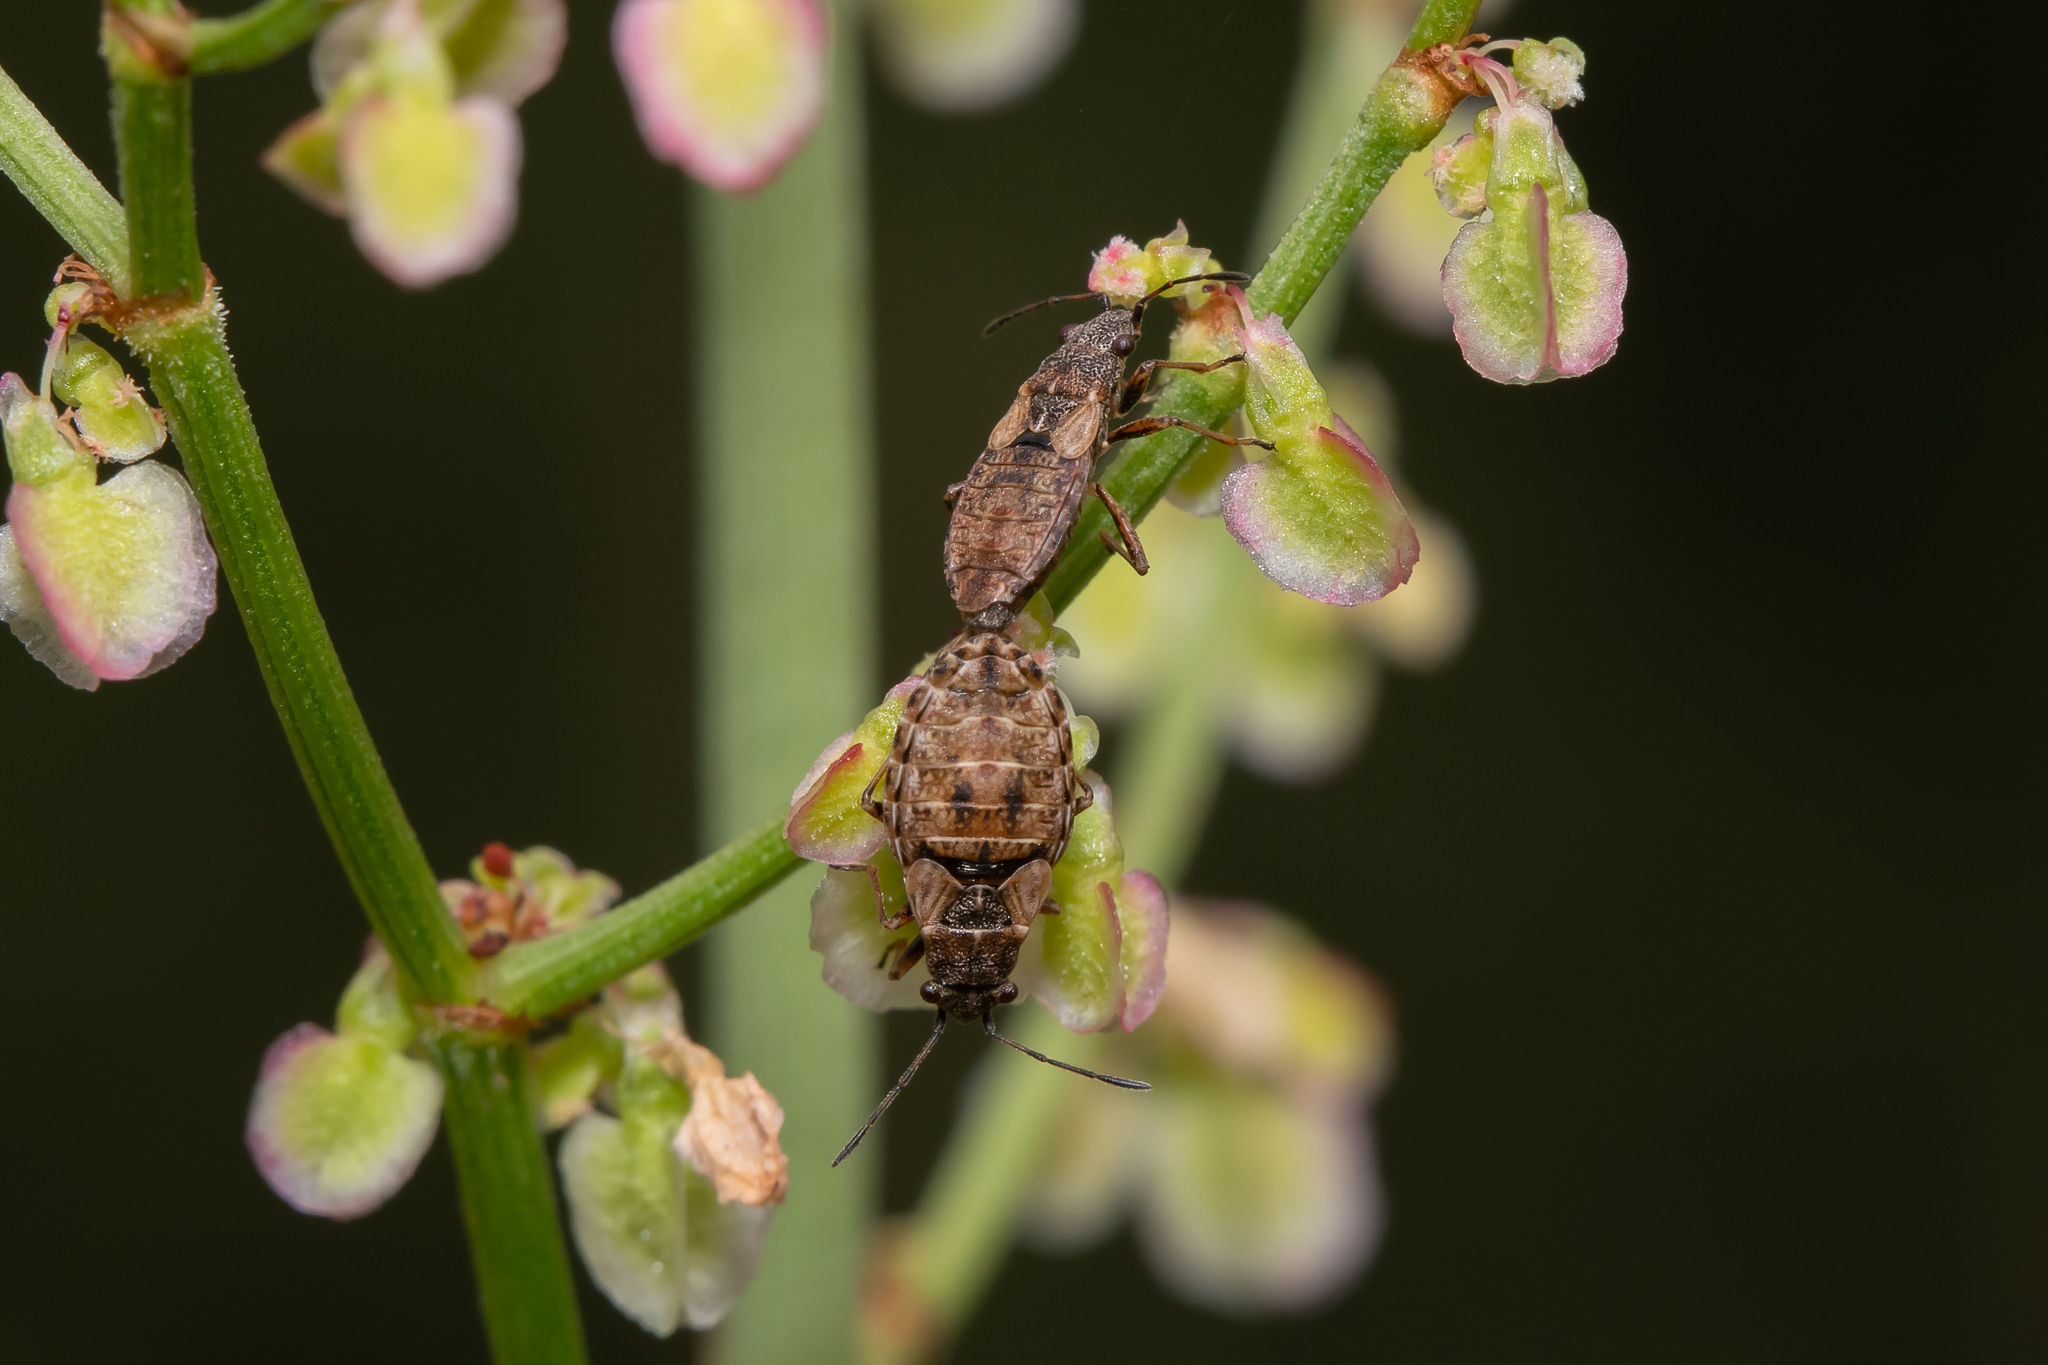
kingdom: Animalia
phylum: Arthropoda
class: Insecta
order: Hemiptera
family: Lygaeidae
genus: Nithecus
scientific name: Nithecus jacobaeae
